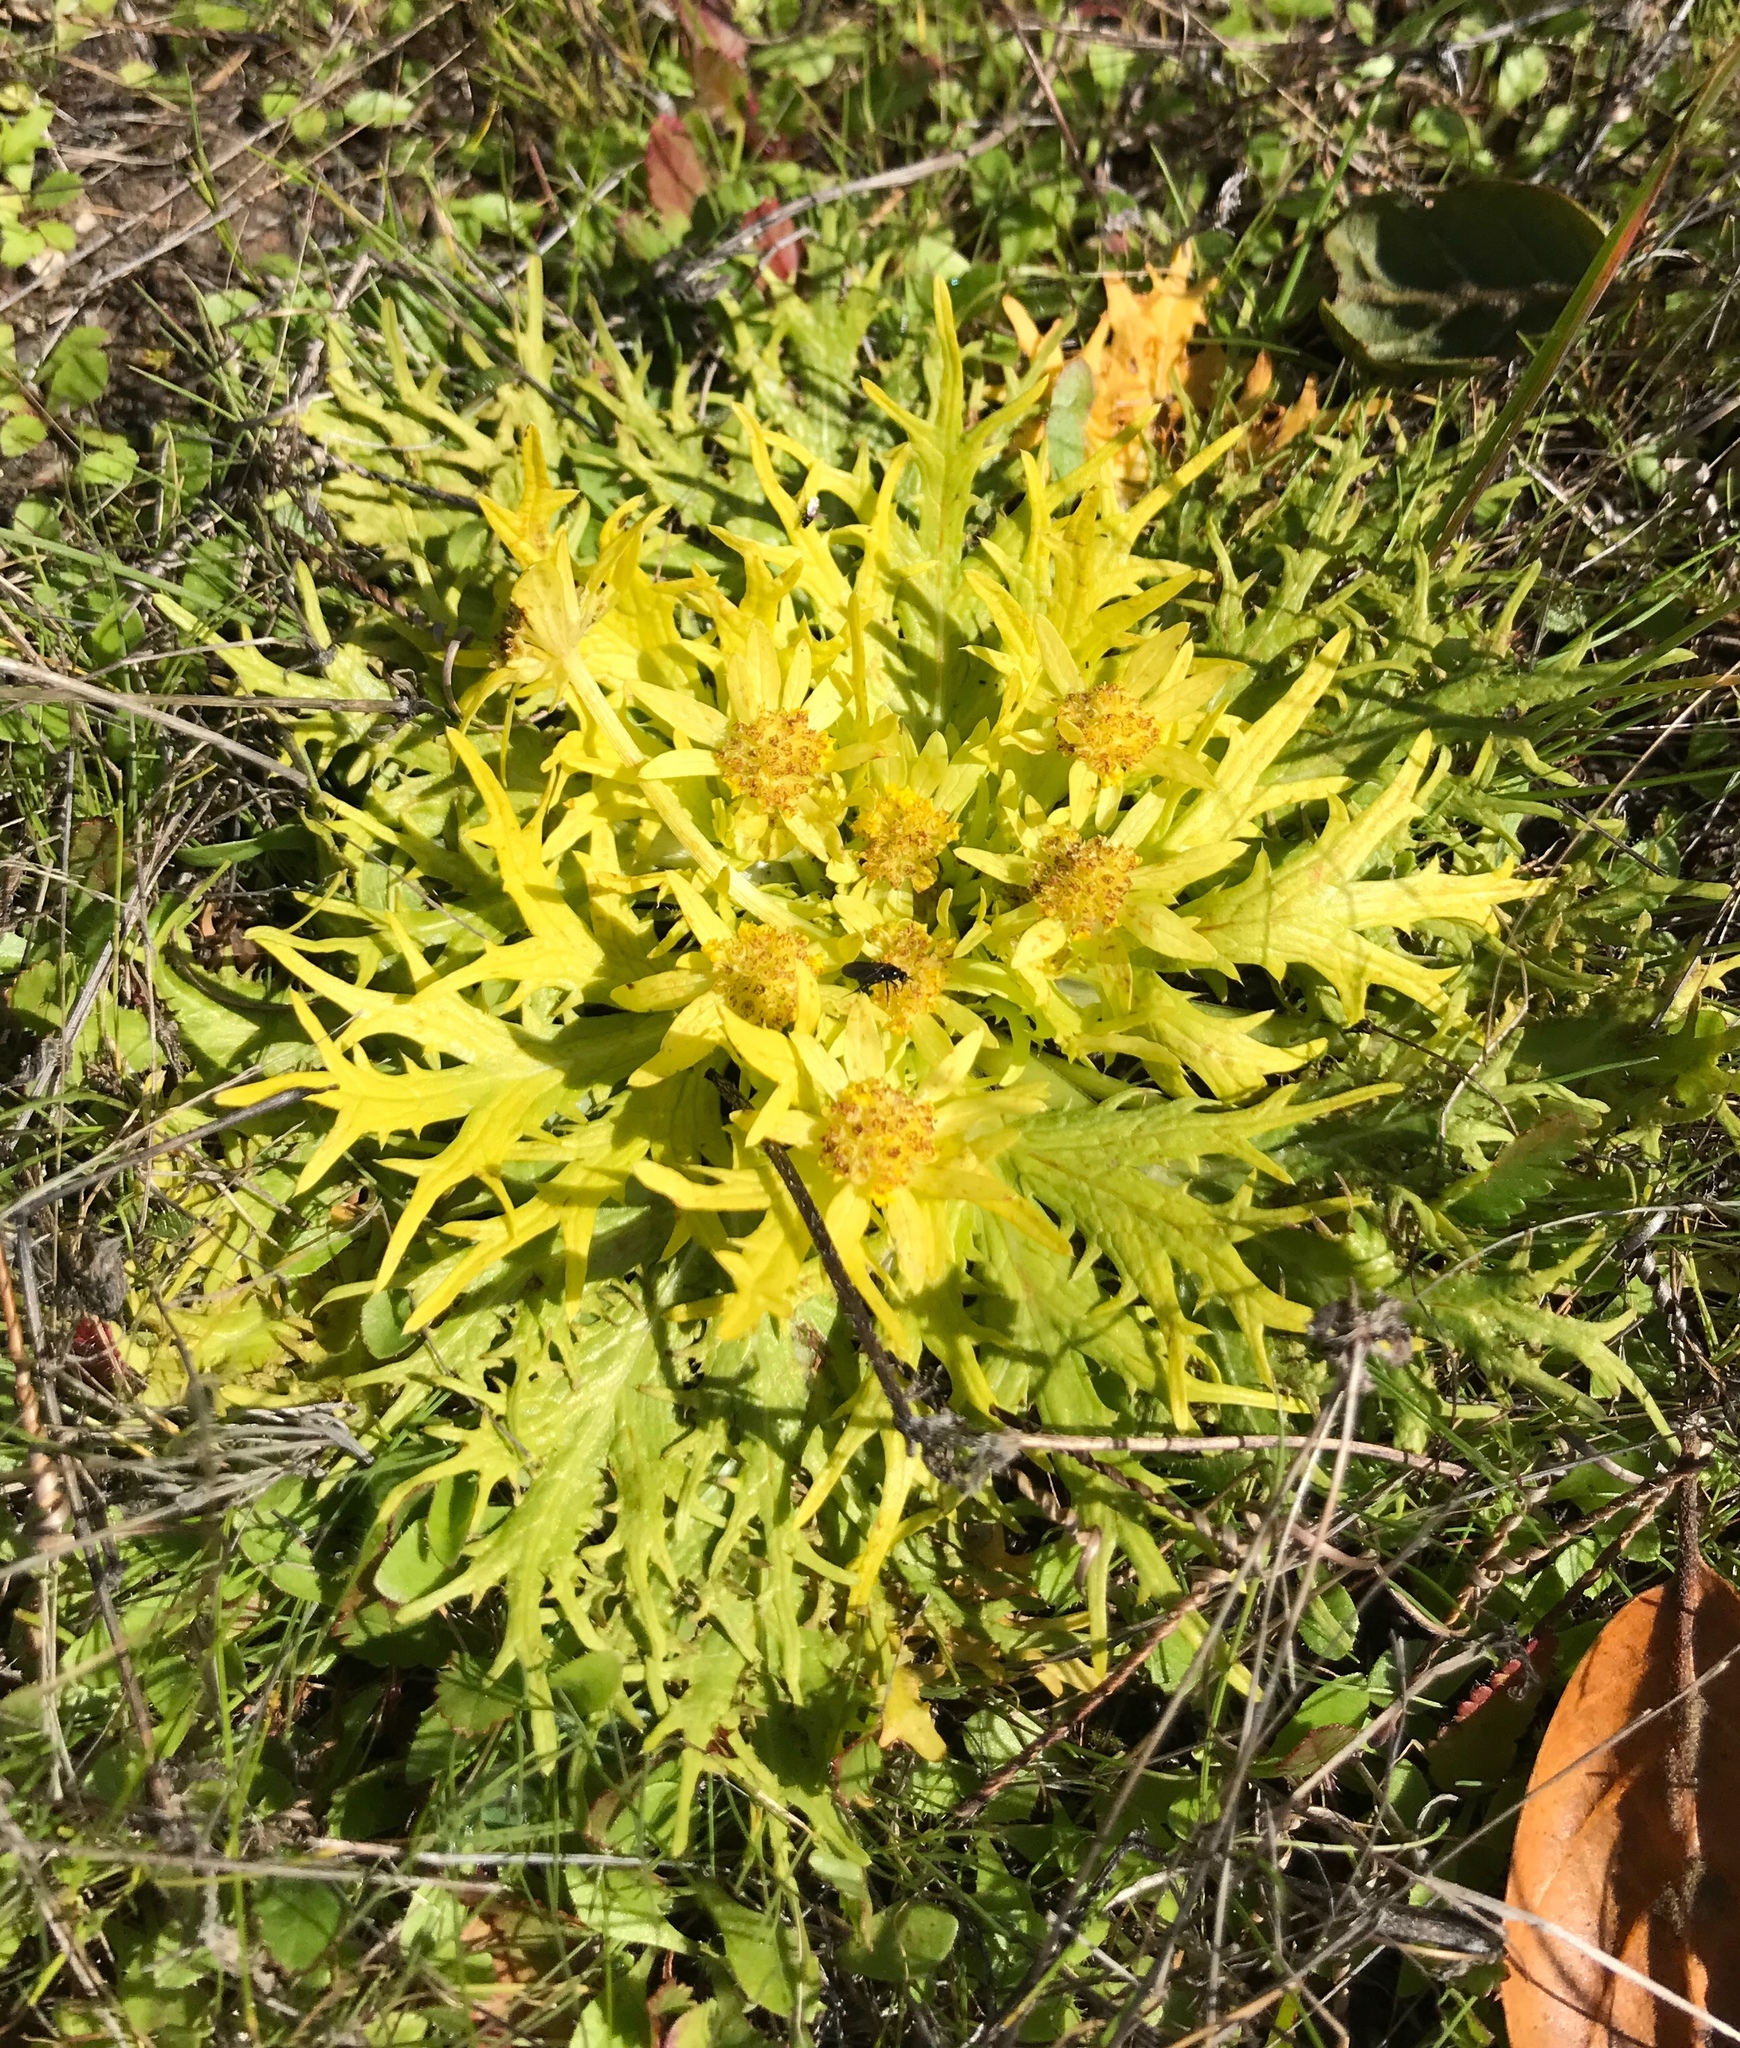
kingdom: Plantae
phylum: Tracheophyta
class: Magnoliopsida
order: Apiales
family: Apiaceae
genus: Sanicula
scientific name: Sanicula arctopoides
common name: Footsteps-of-spring
